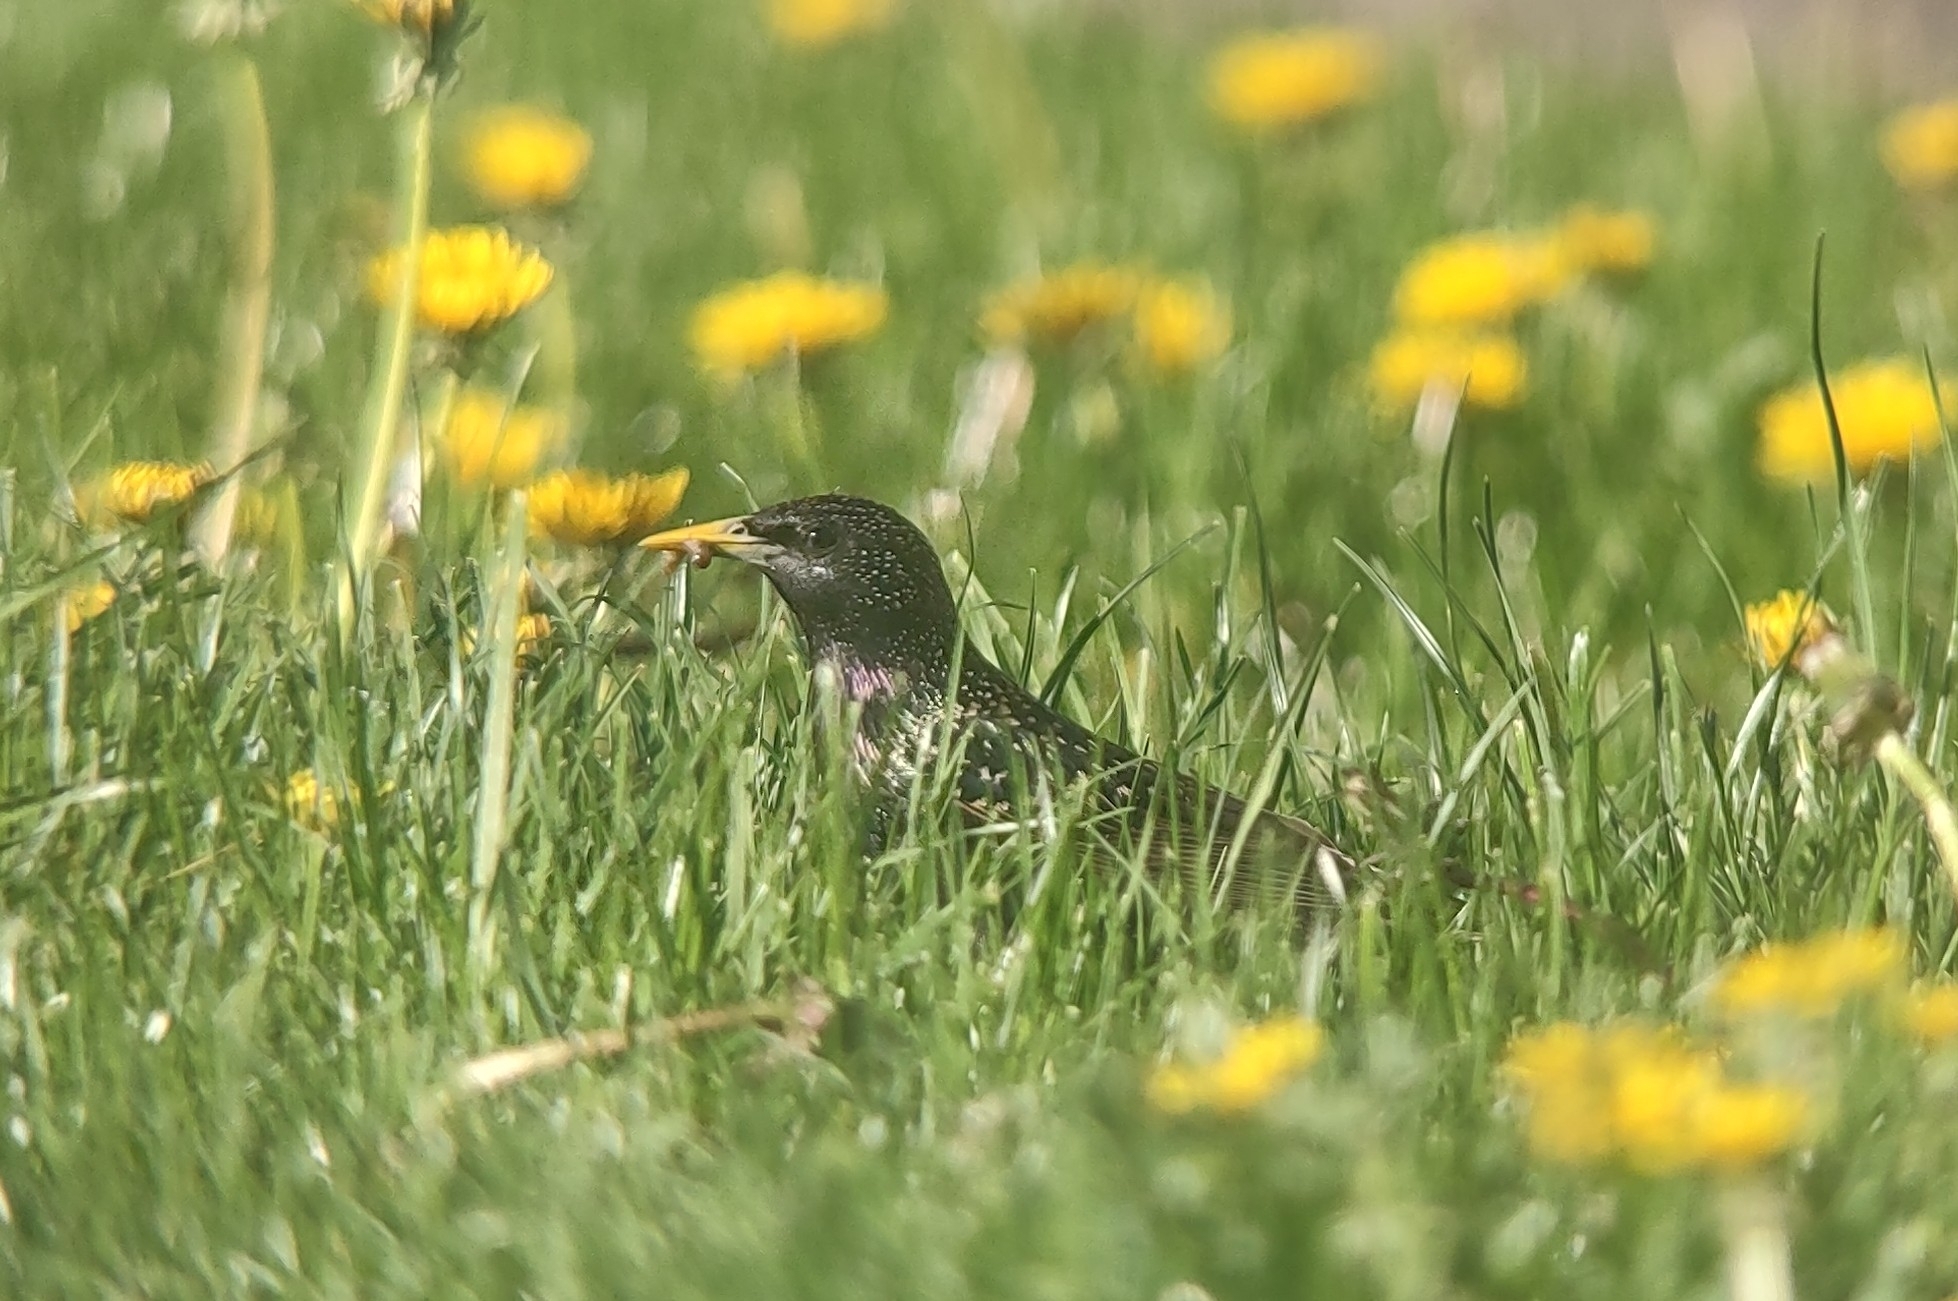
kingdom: Animalia
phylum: Chordata
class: Aves
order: Passeriformes
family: Sturnidae
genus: Sturnus
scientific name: Sturnus vulgaris
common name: Common starling
